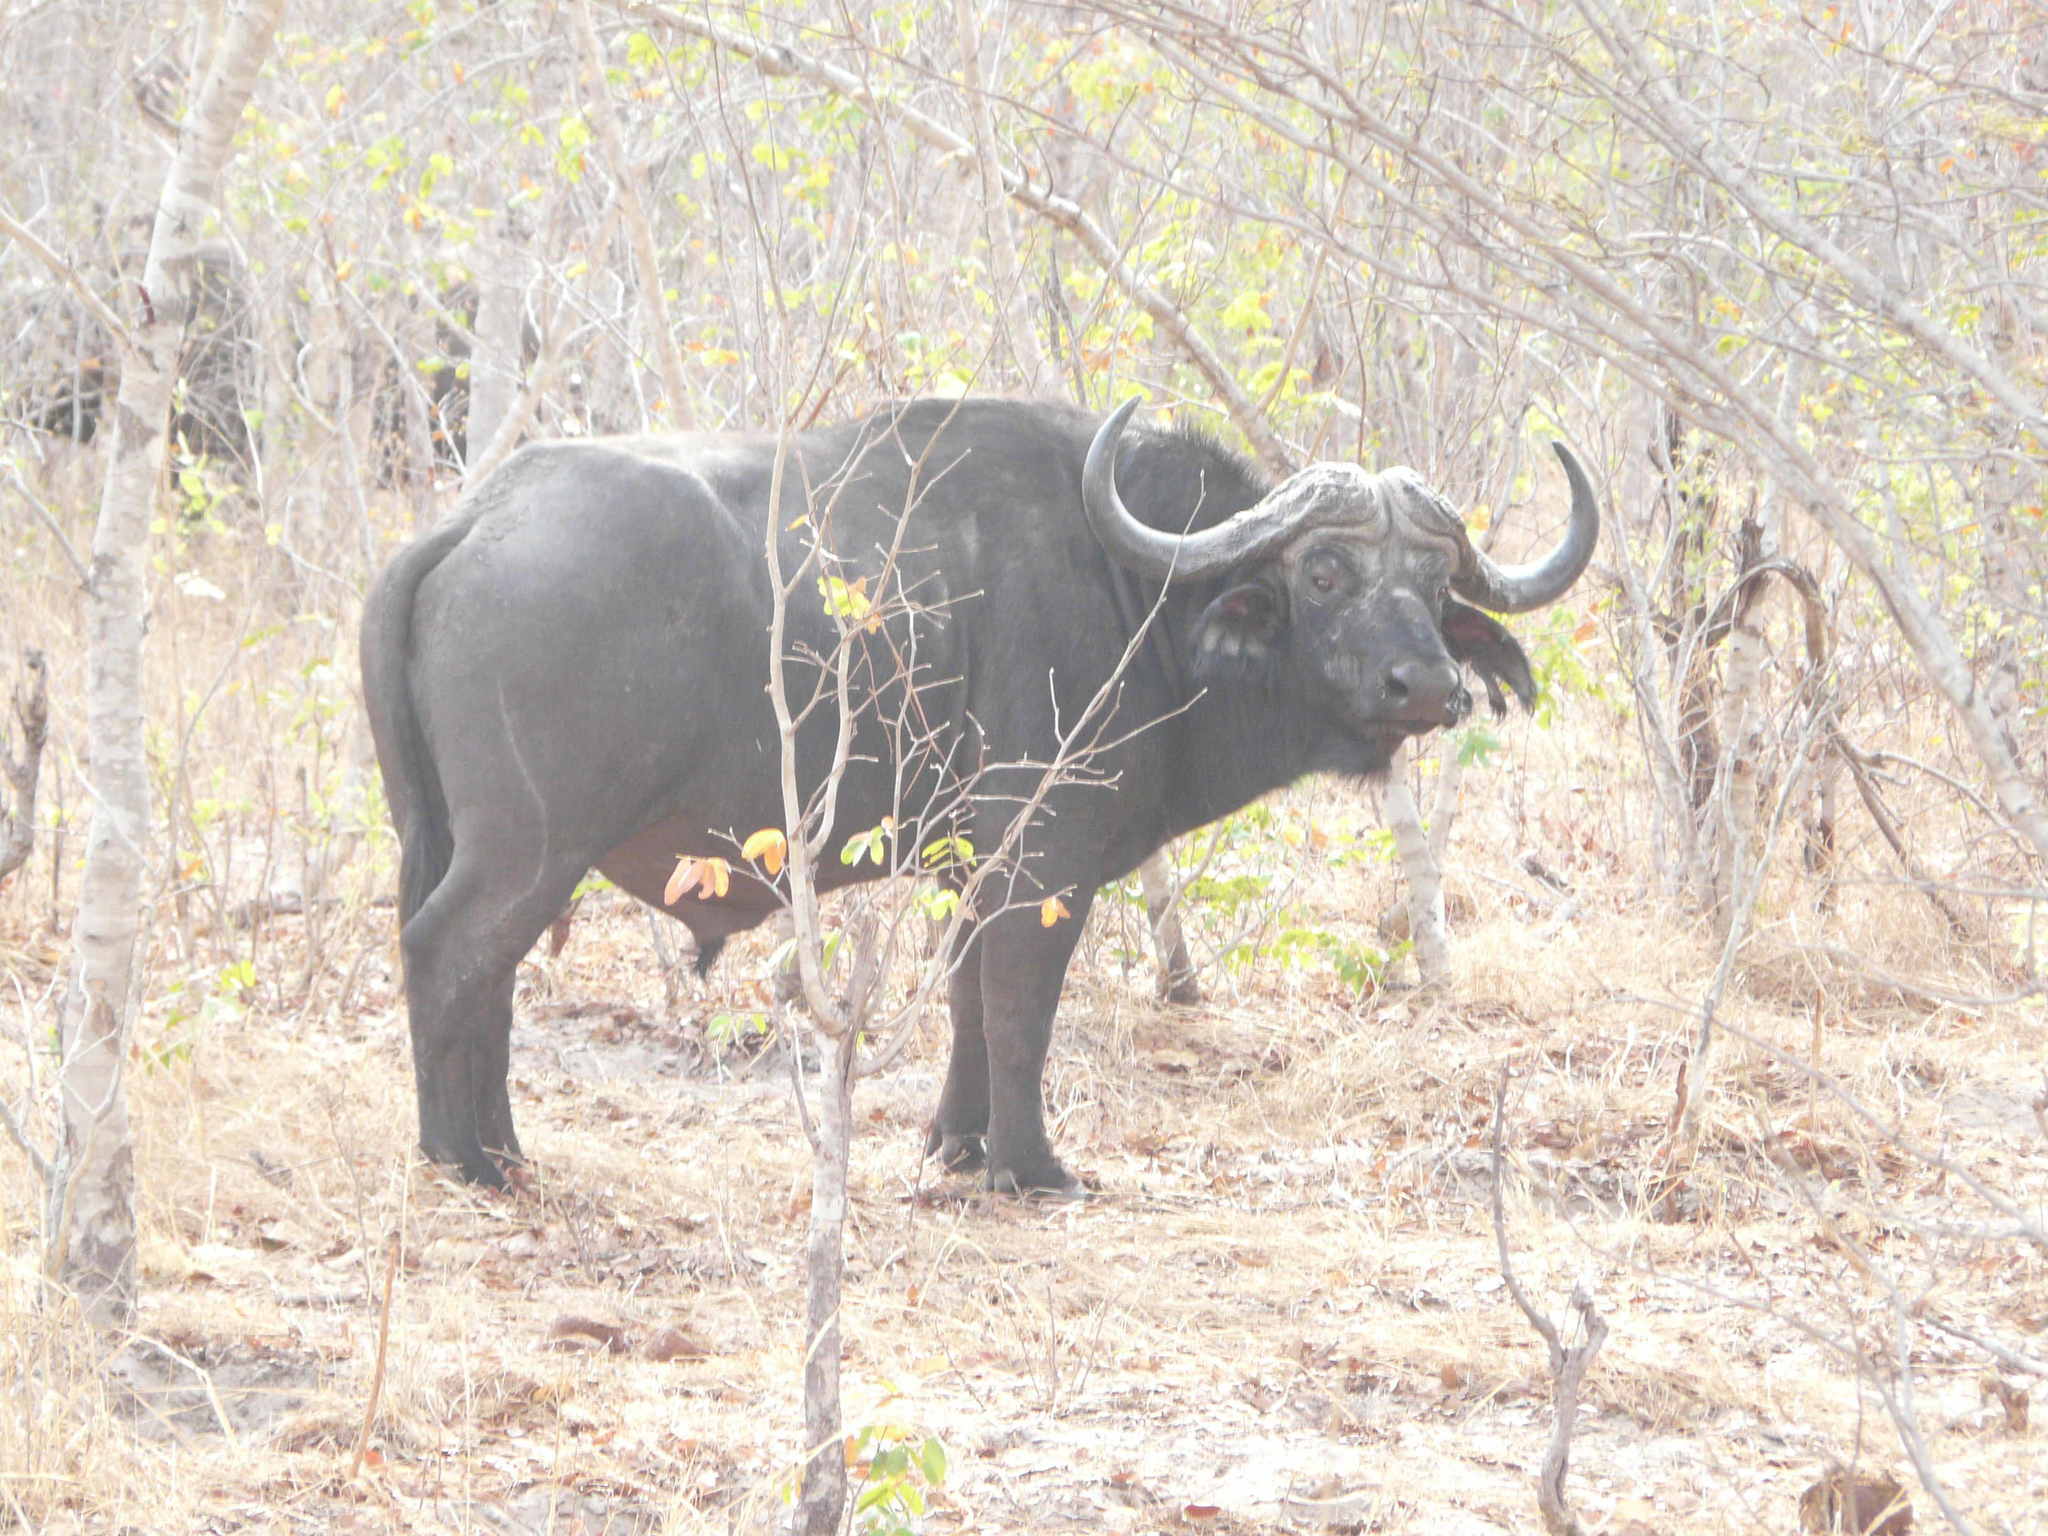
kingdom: Animalia
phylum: Chordata
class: Mammalia
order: Artiodactyla
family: Bovidae
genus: Syncerus
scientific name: Syncerus caffer
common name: African buffalo
